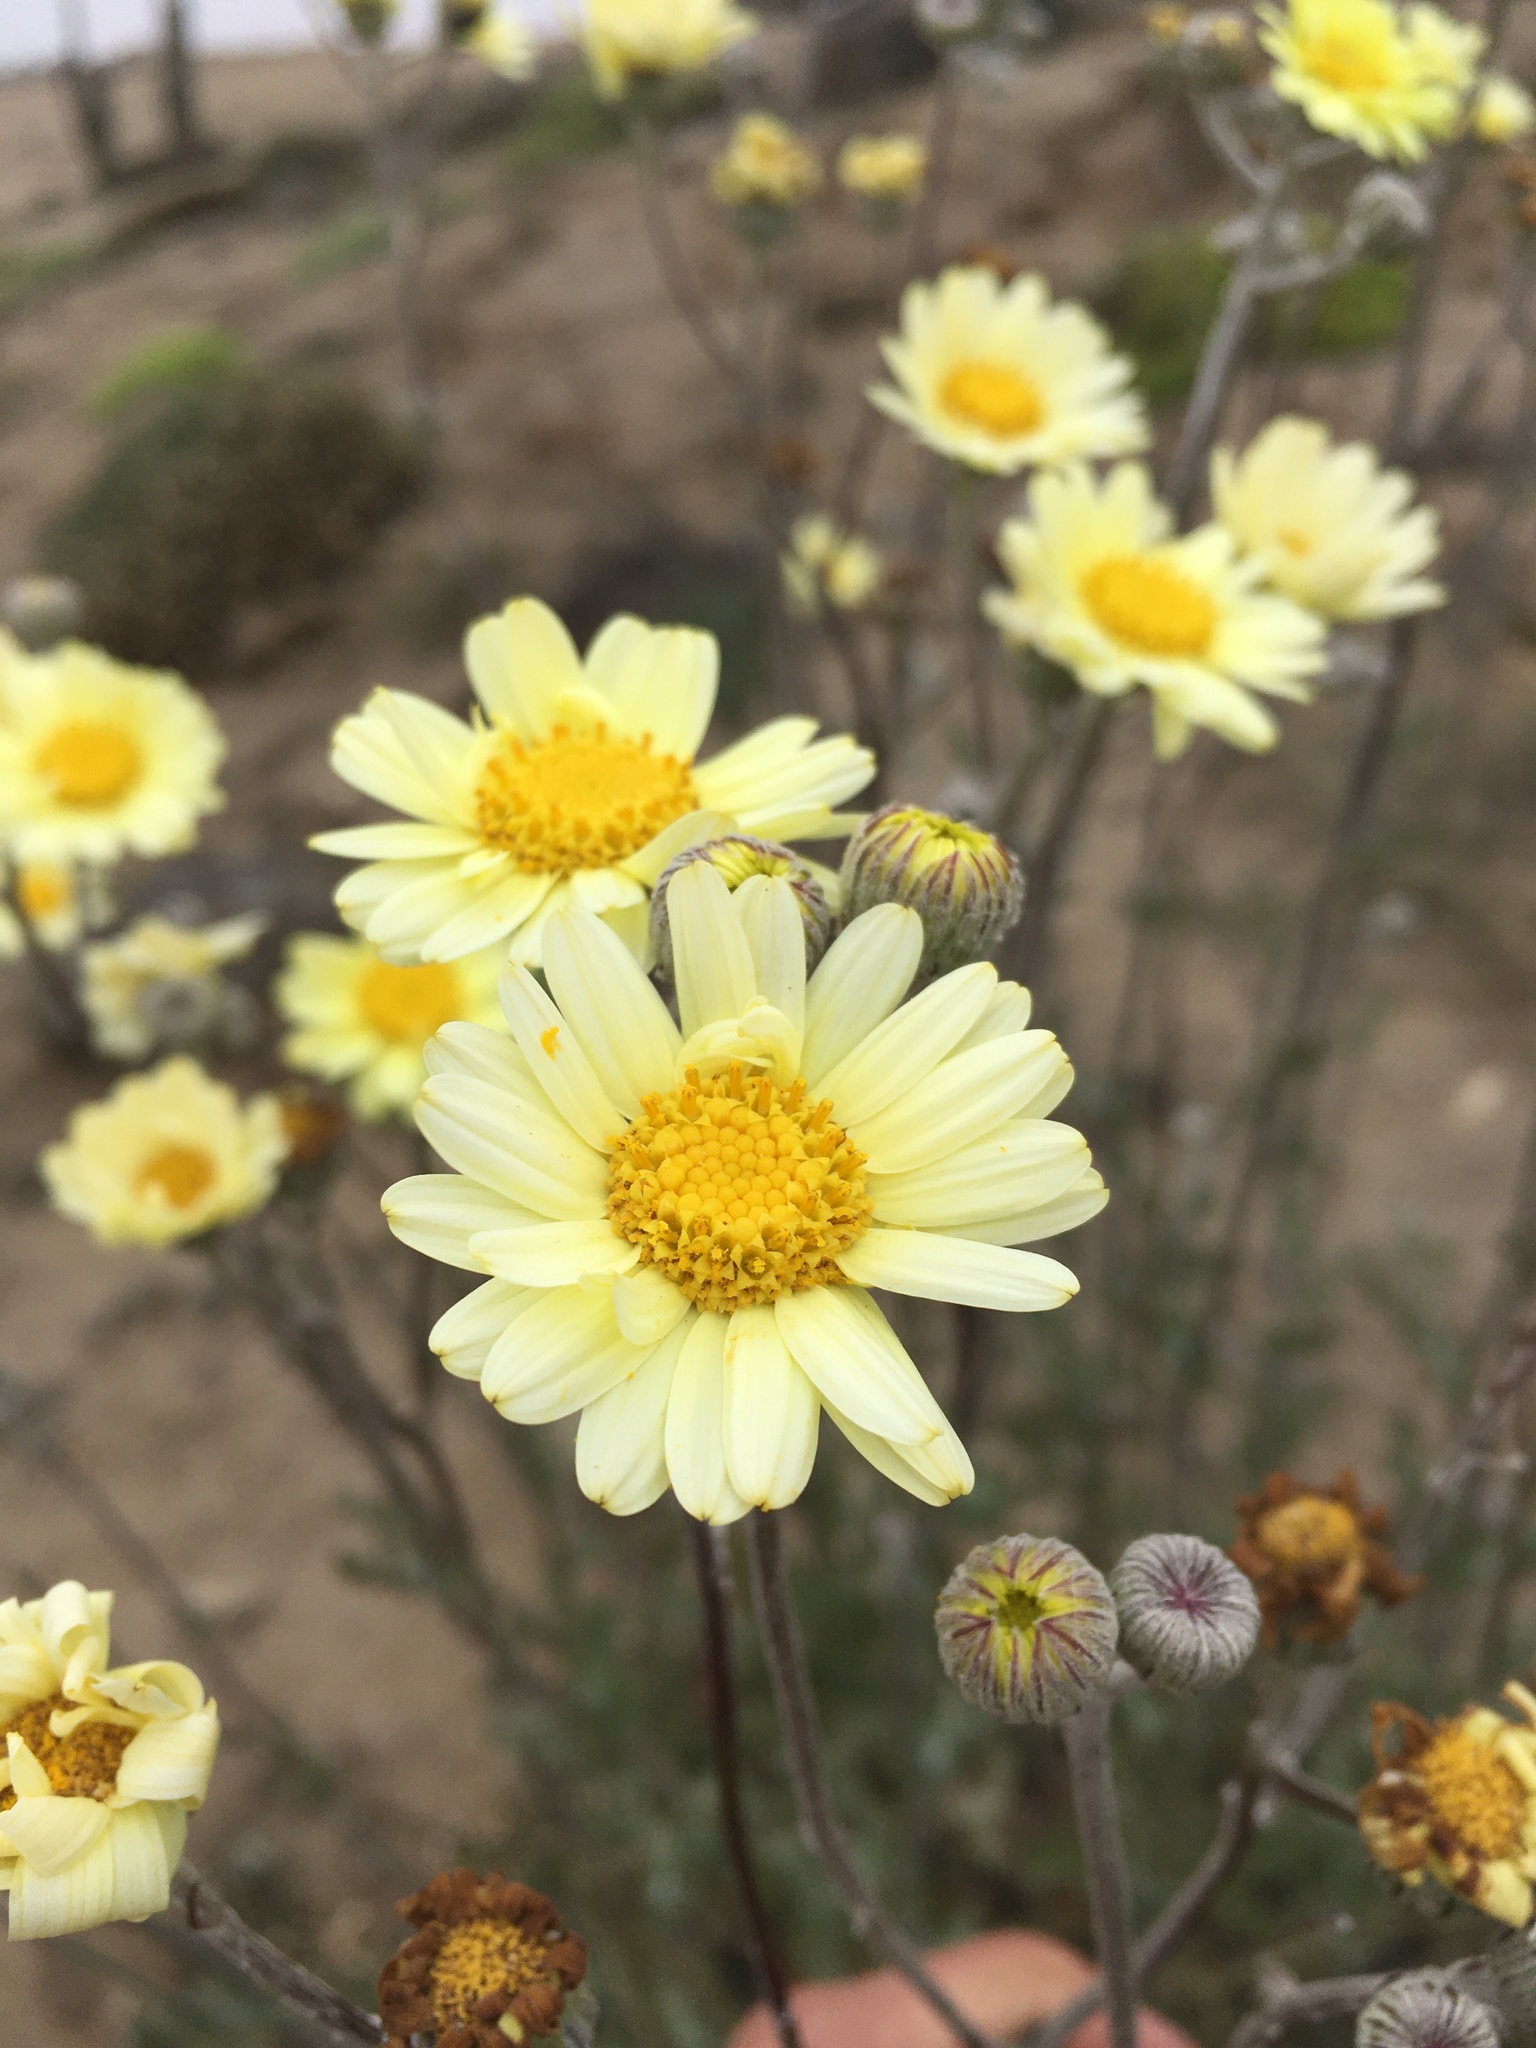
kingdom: Plantae
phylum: Tracheophyta
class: Magnoliopsida
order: Asterales
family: Asteraceae
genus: Senecio
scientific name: Senecio antofagastanus
